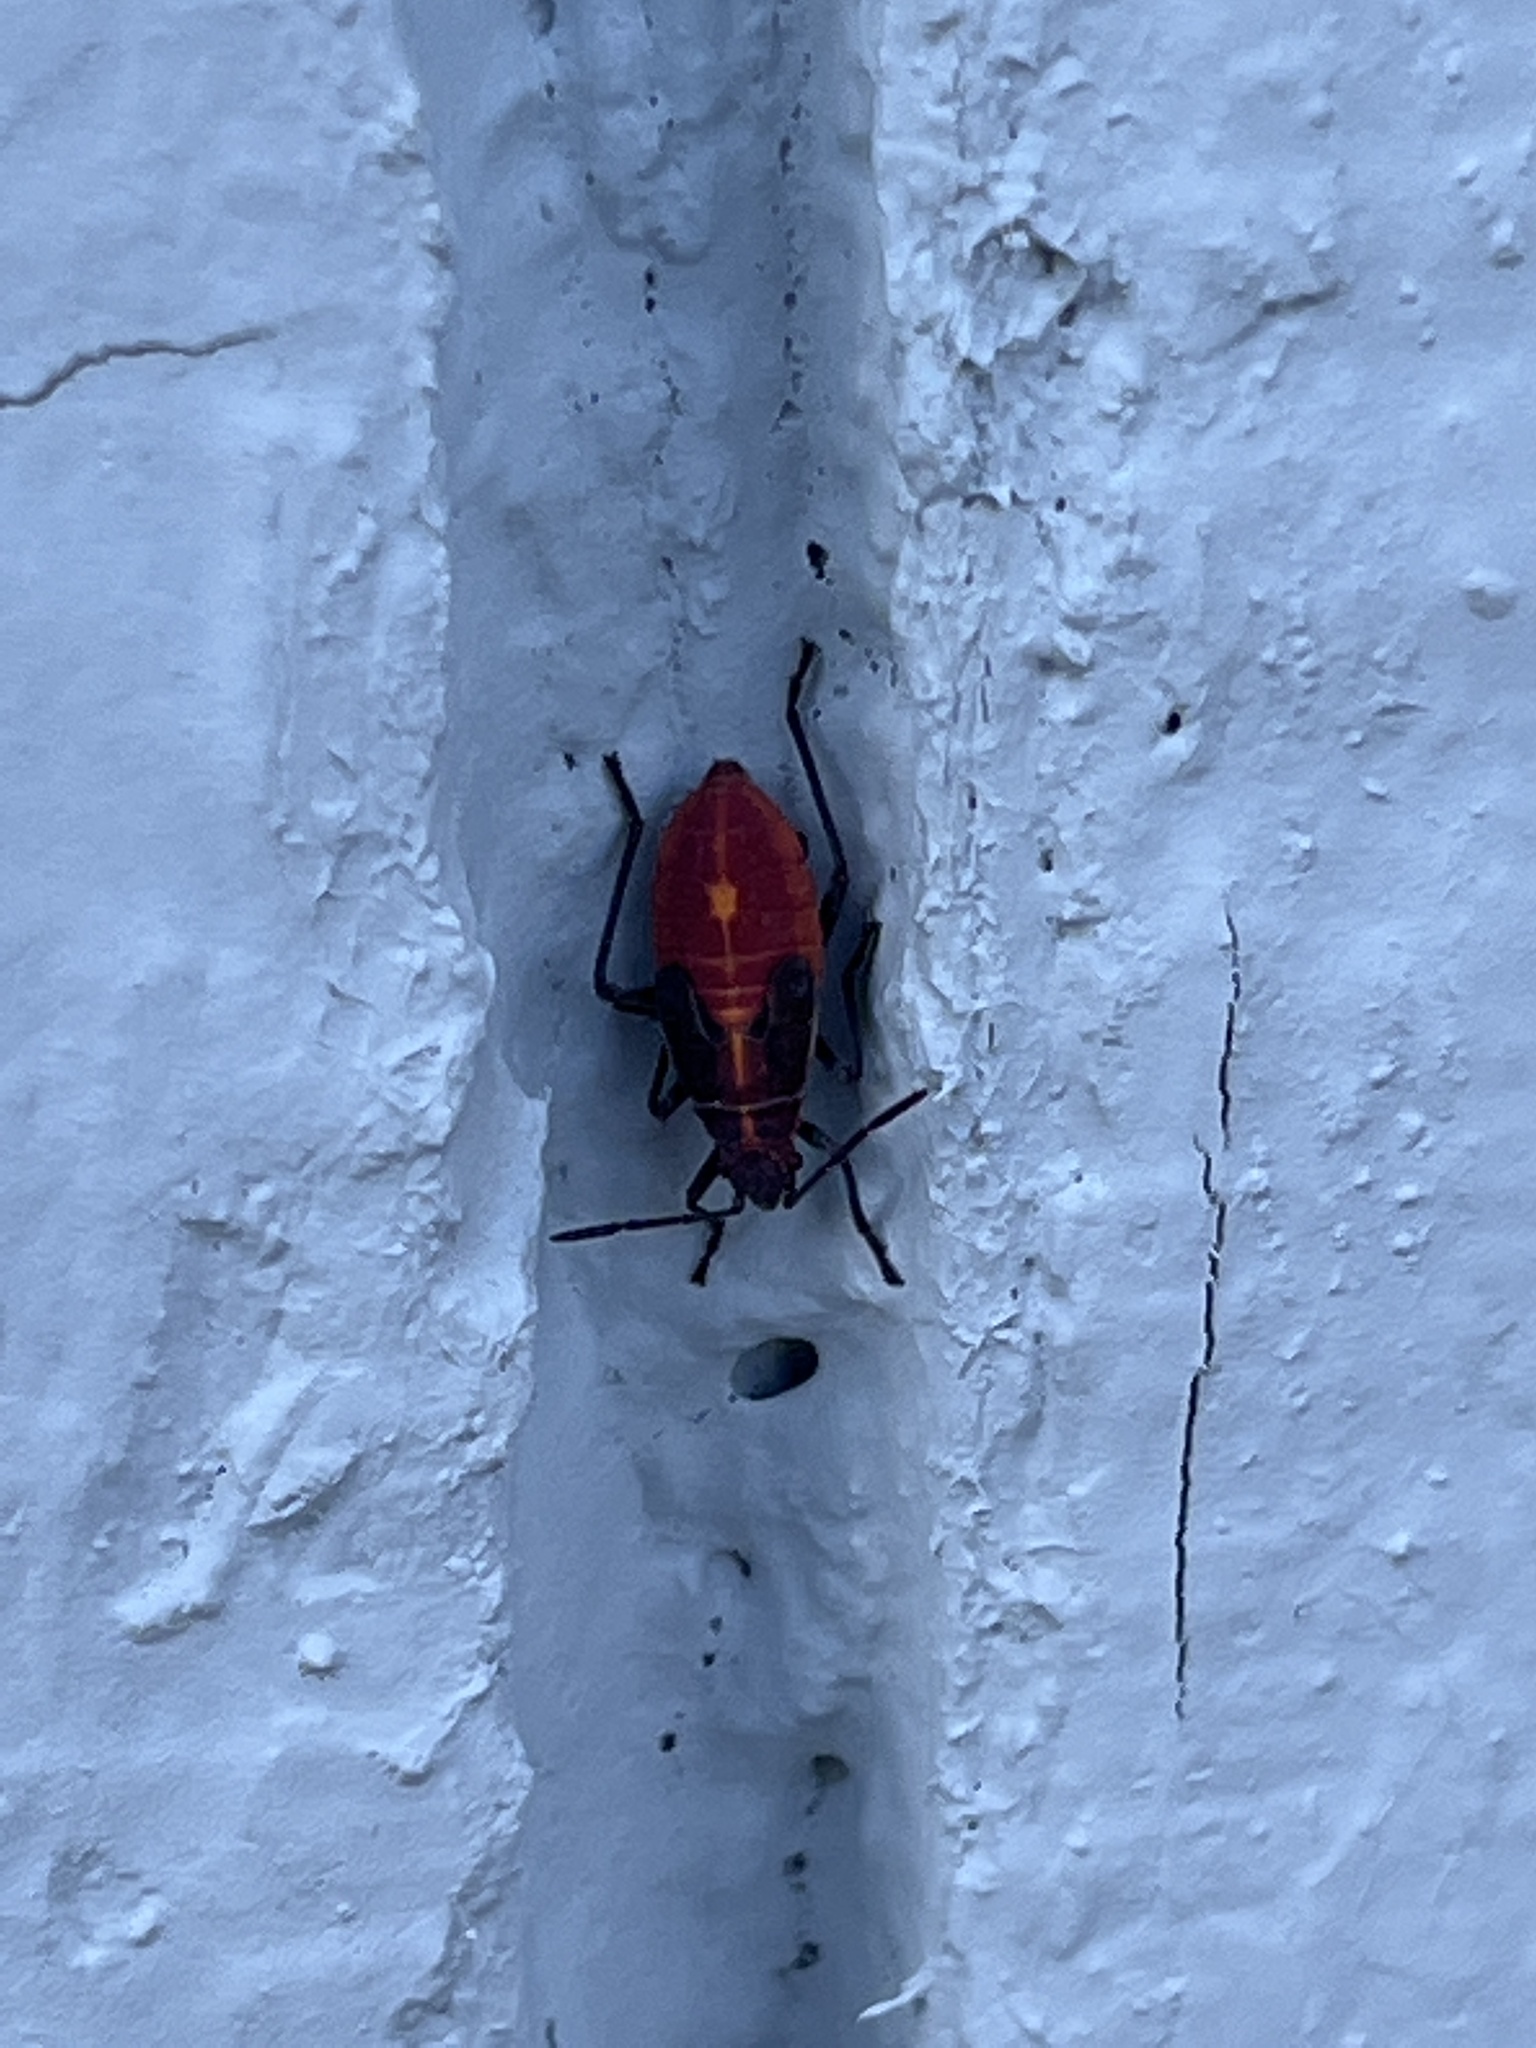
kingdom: Animalia
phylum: Arthropoda
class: Insecta
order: Hemiptera
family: Rhopalidae
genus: Boisea
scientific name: Boisea trivittata
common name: Boxelder bug
